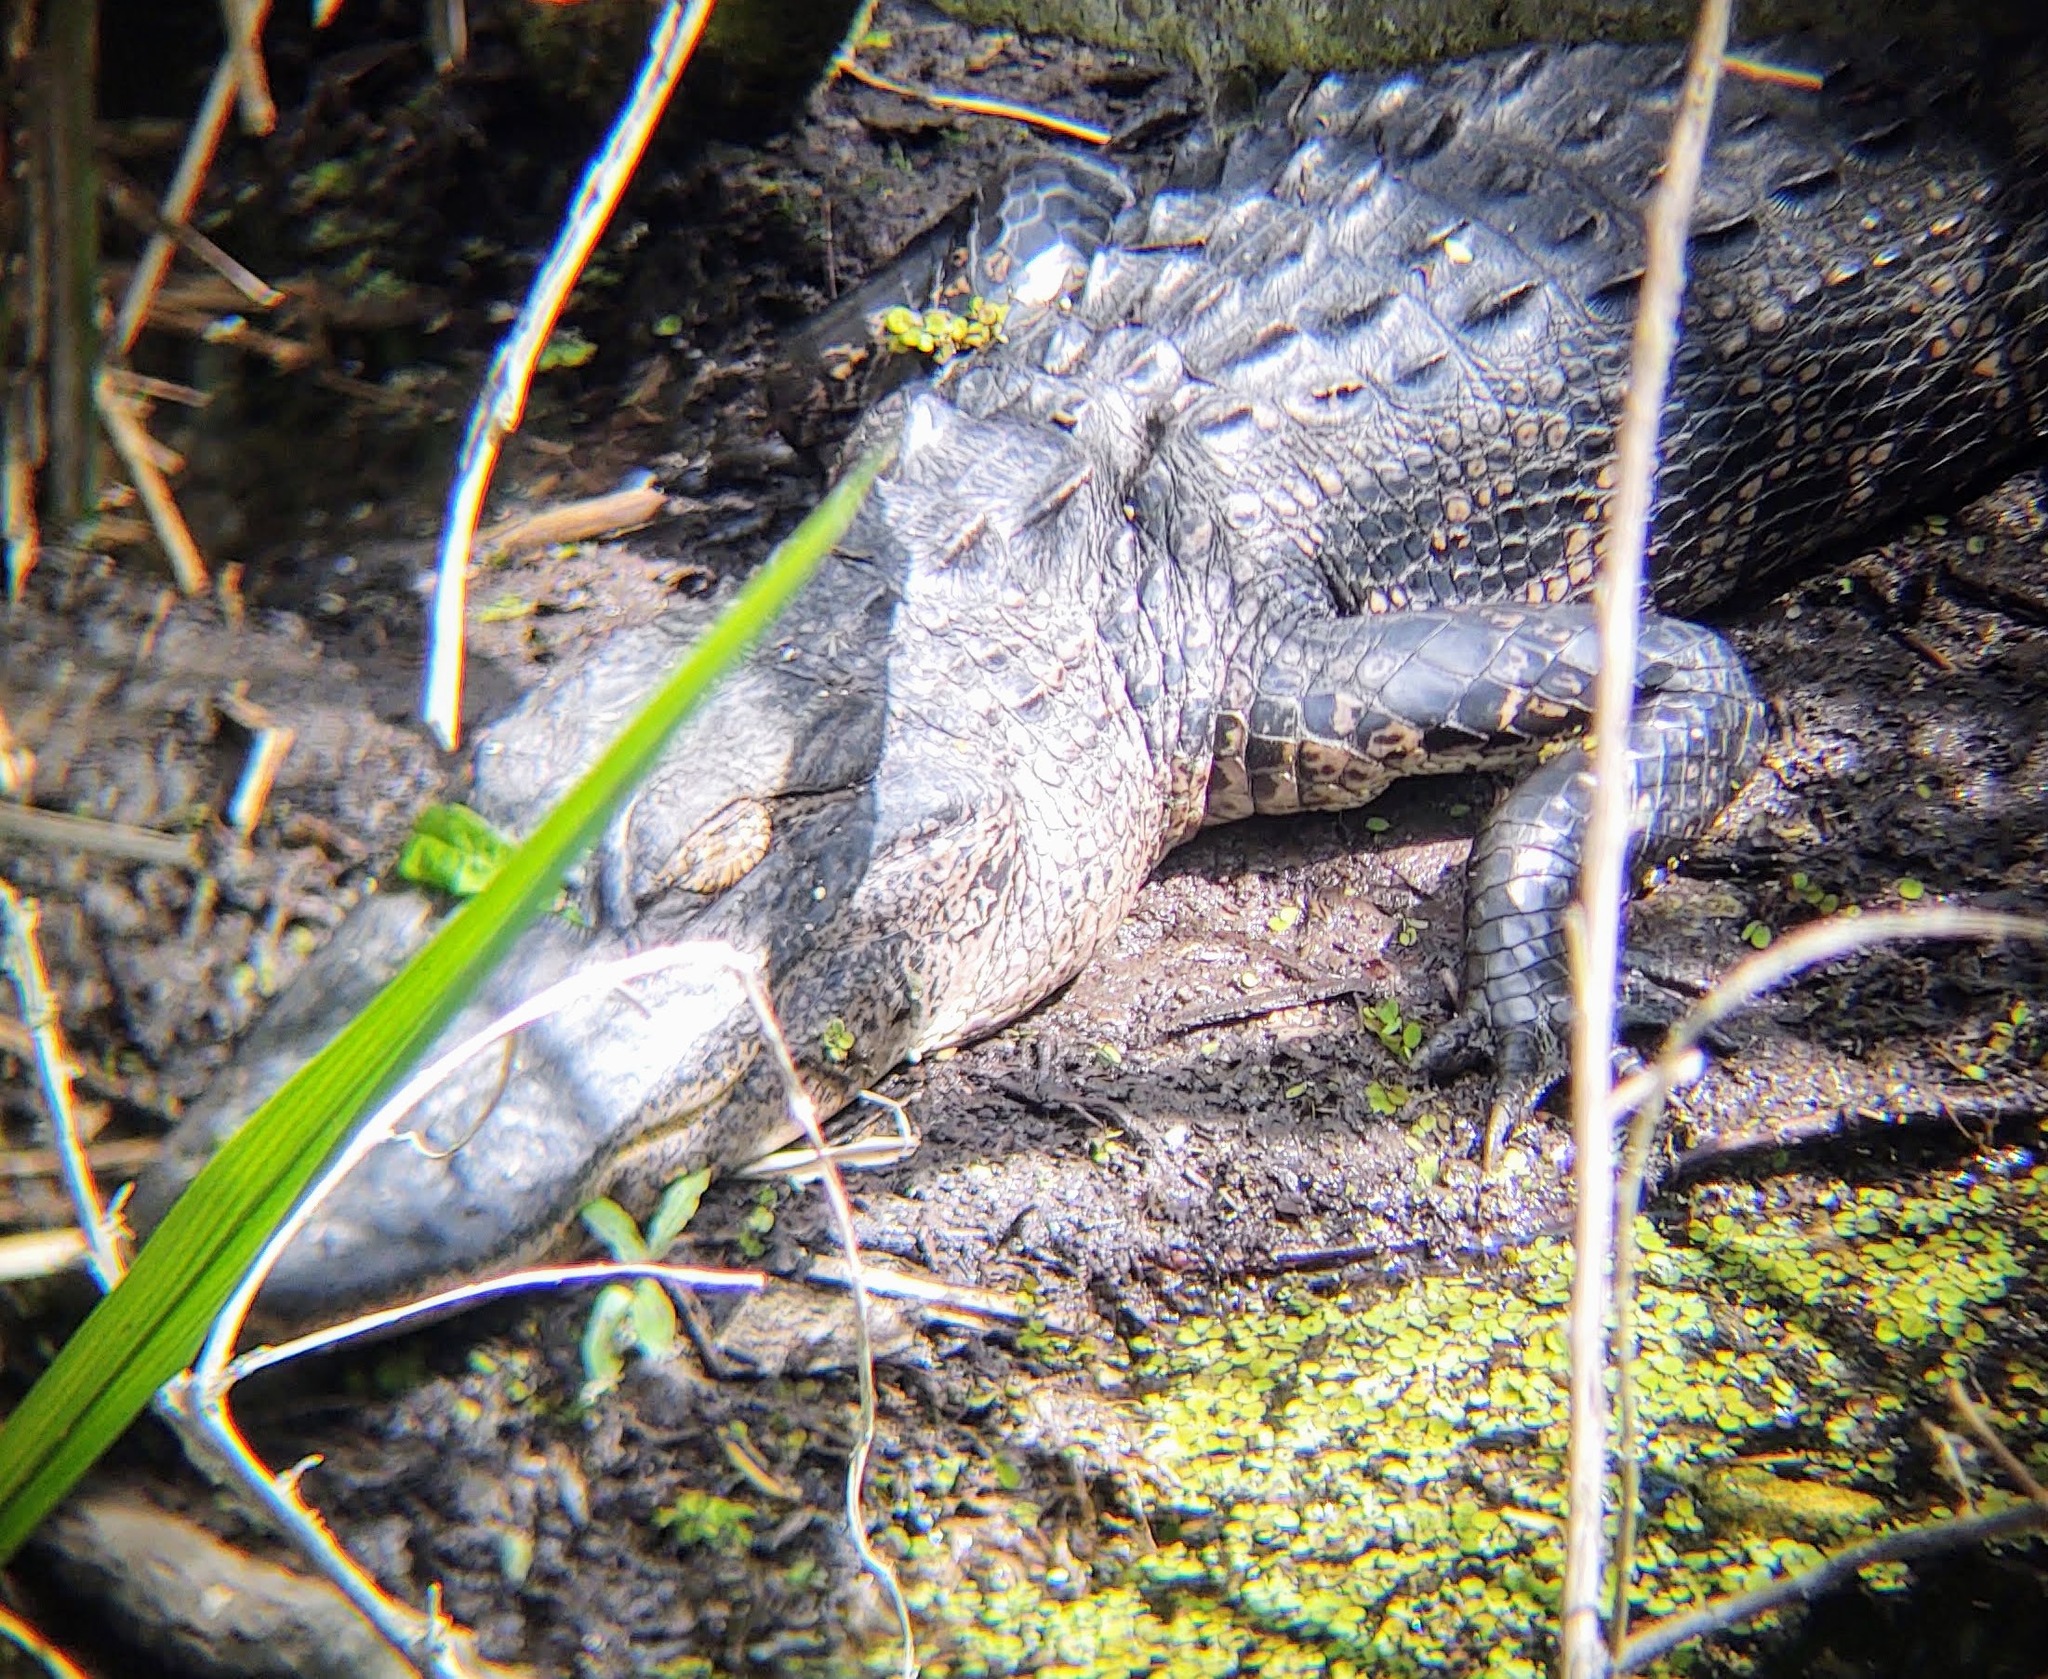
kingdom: Animalia
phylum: Chordata
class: Crocodylia
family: Alligatoridae
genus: Alligator
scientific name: Alligator mississippiensis
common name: American alligator
